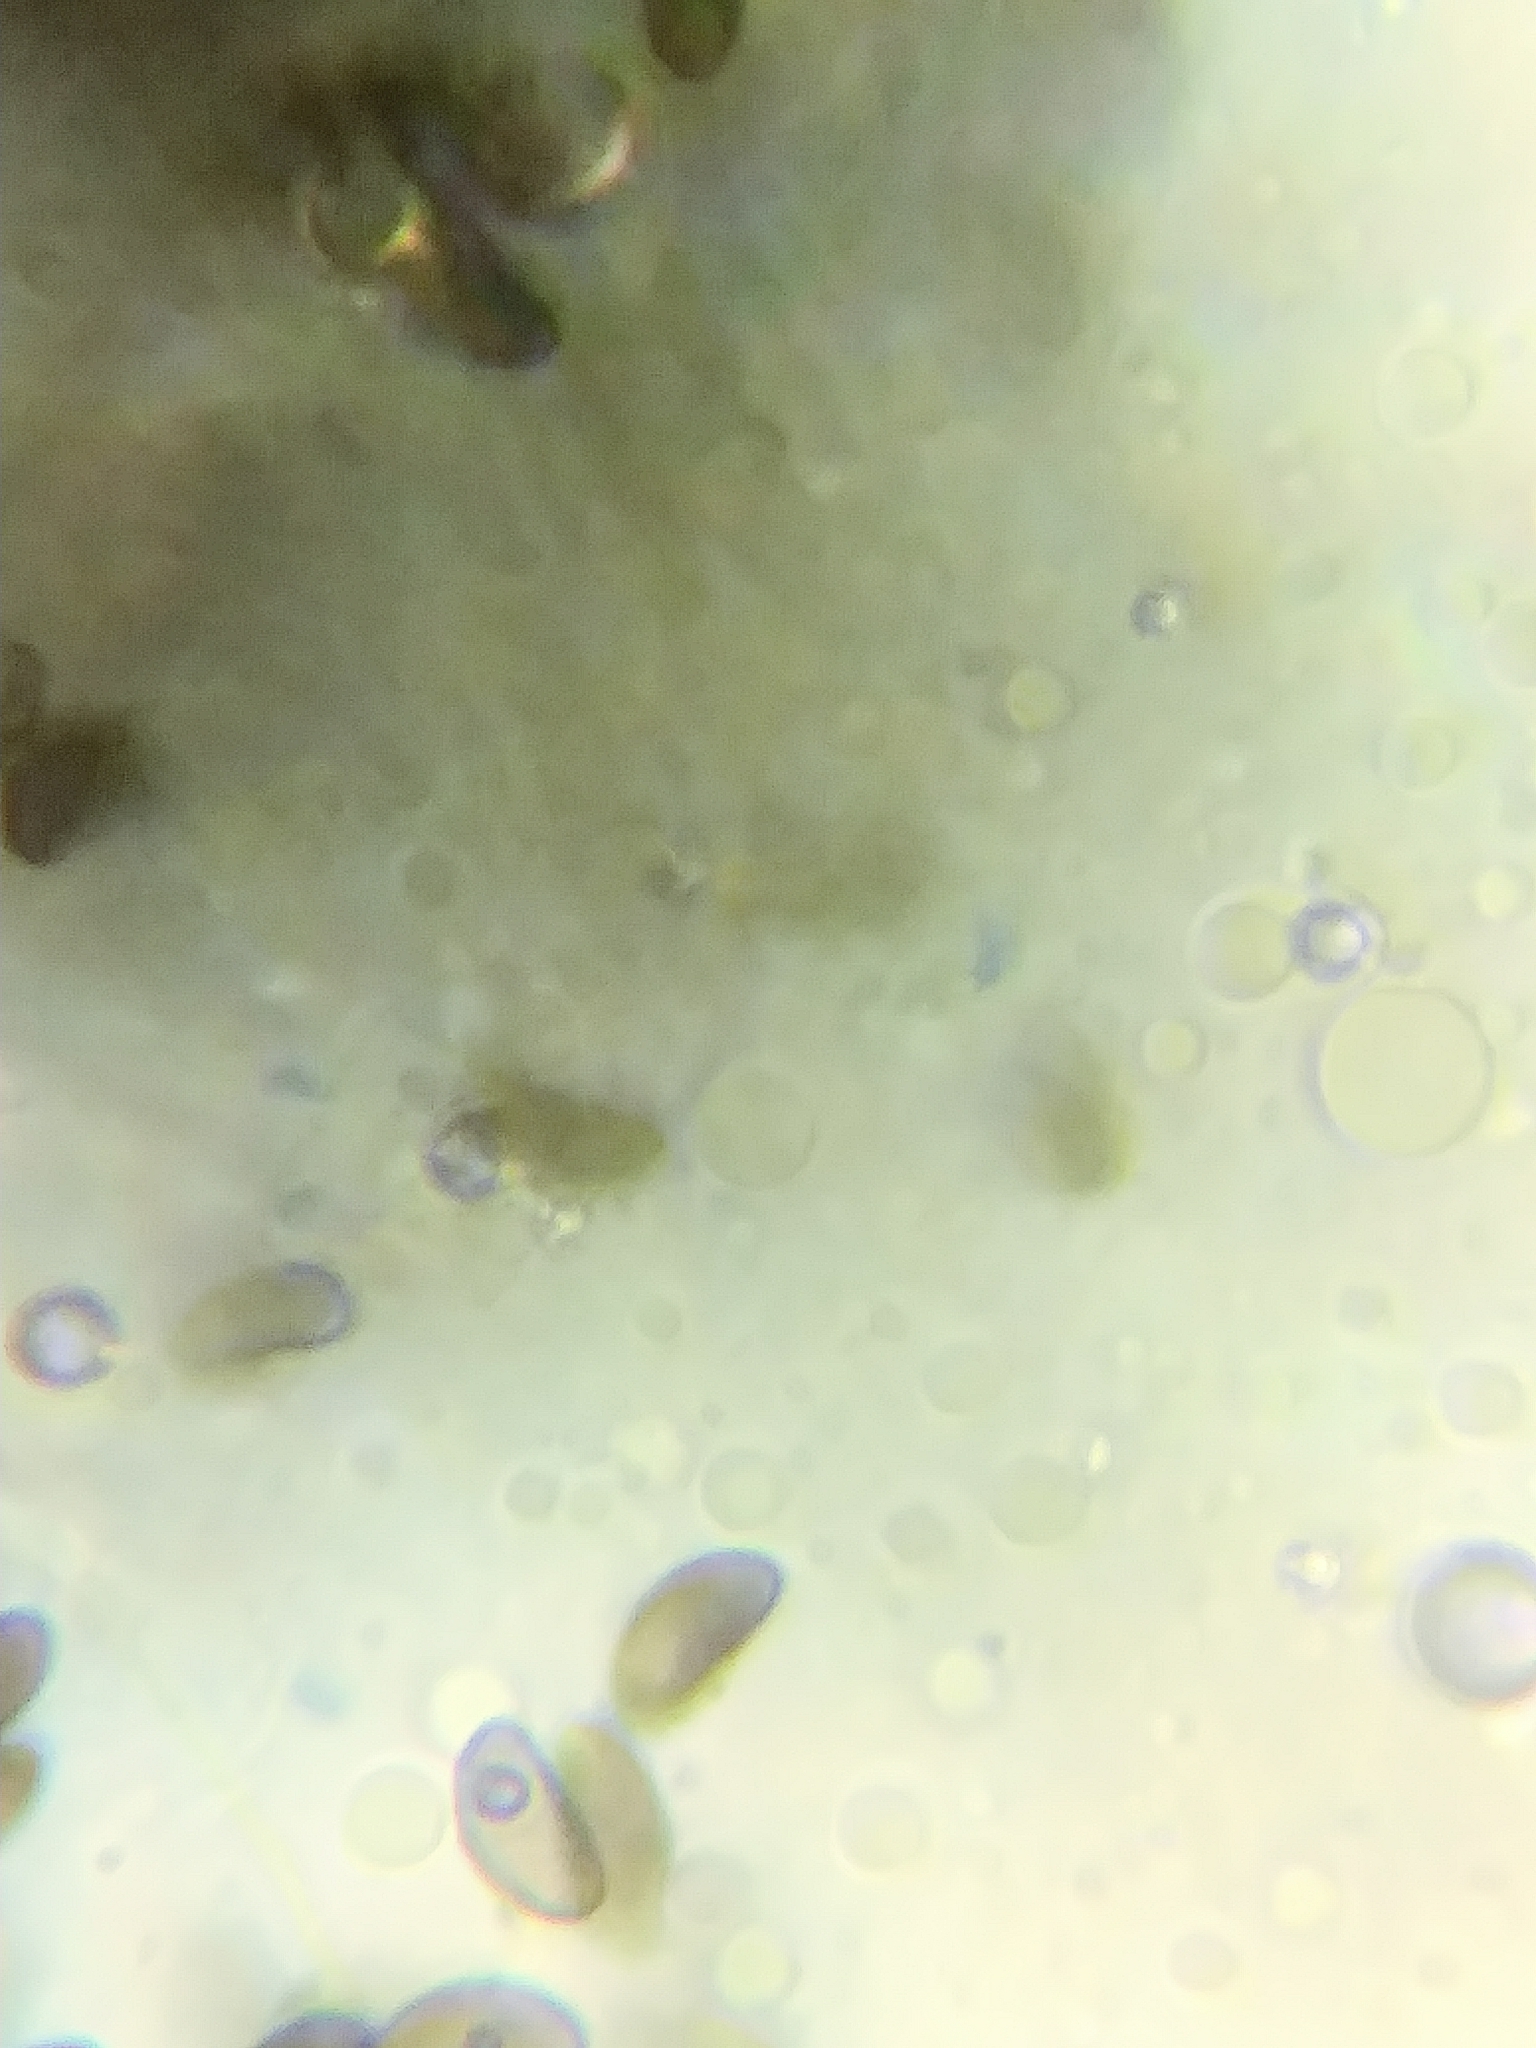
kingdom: Fungi
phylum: Ascomycota
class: Sordariomycetes
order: Xylariales
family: Hypoxylaceae
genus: Hypoxylon
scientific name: Hypoxylon howeanum
